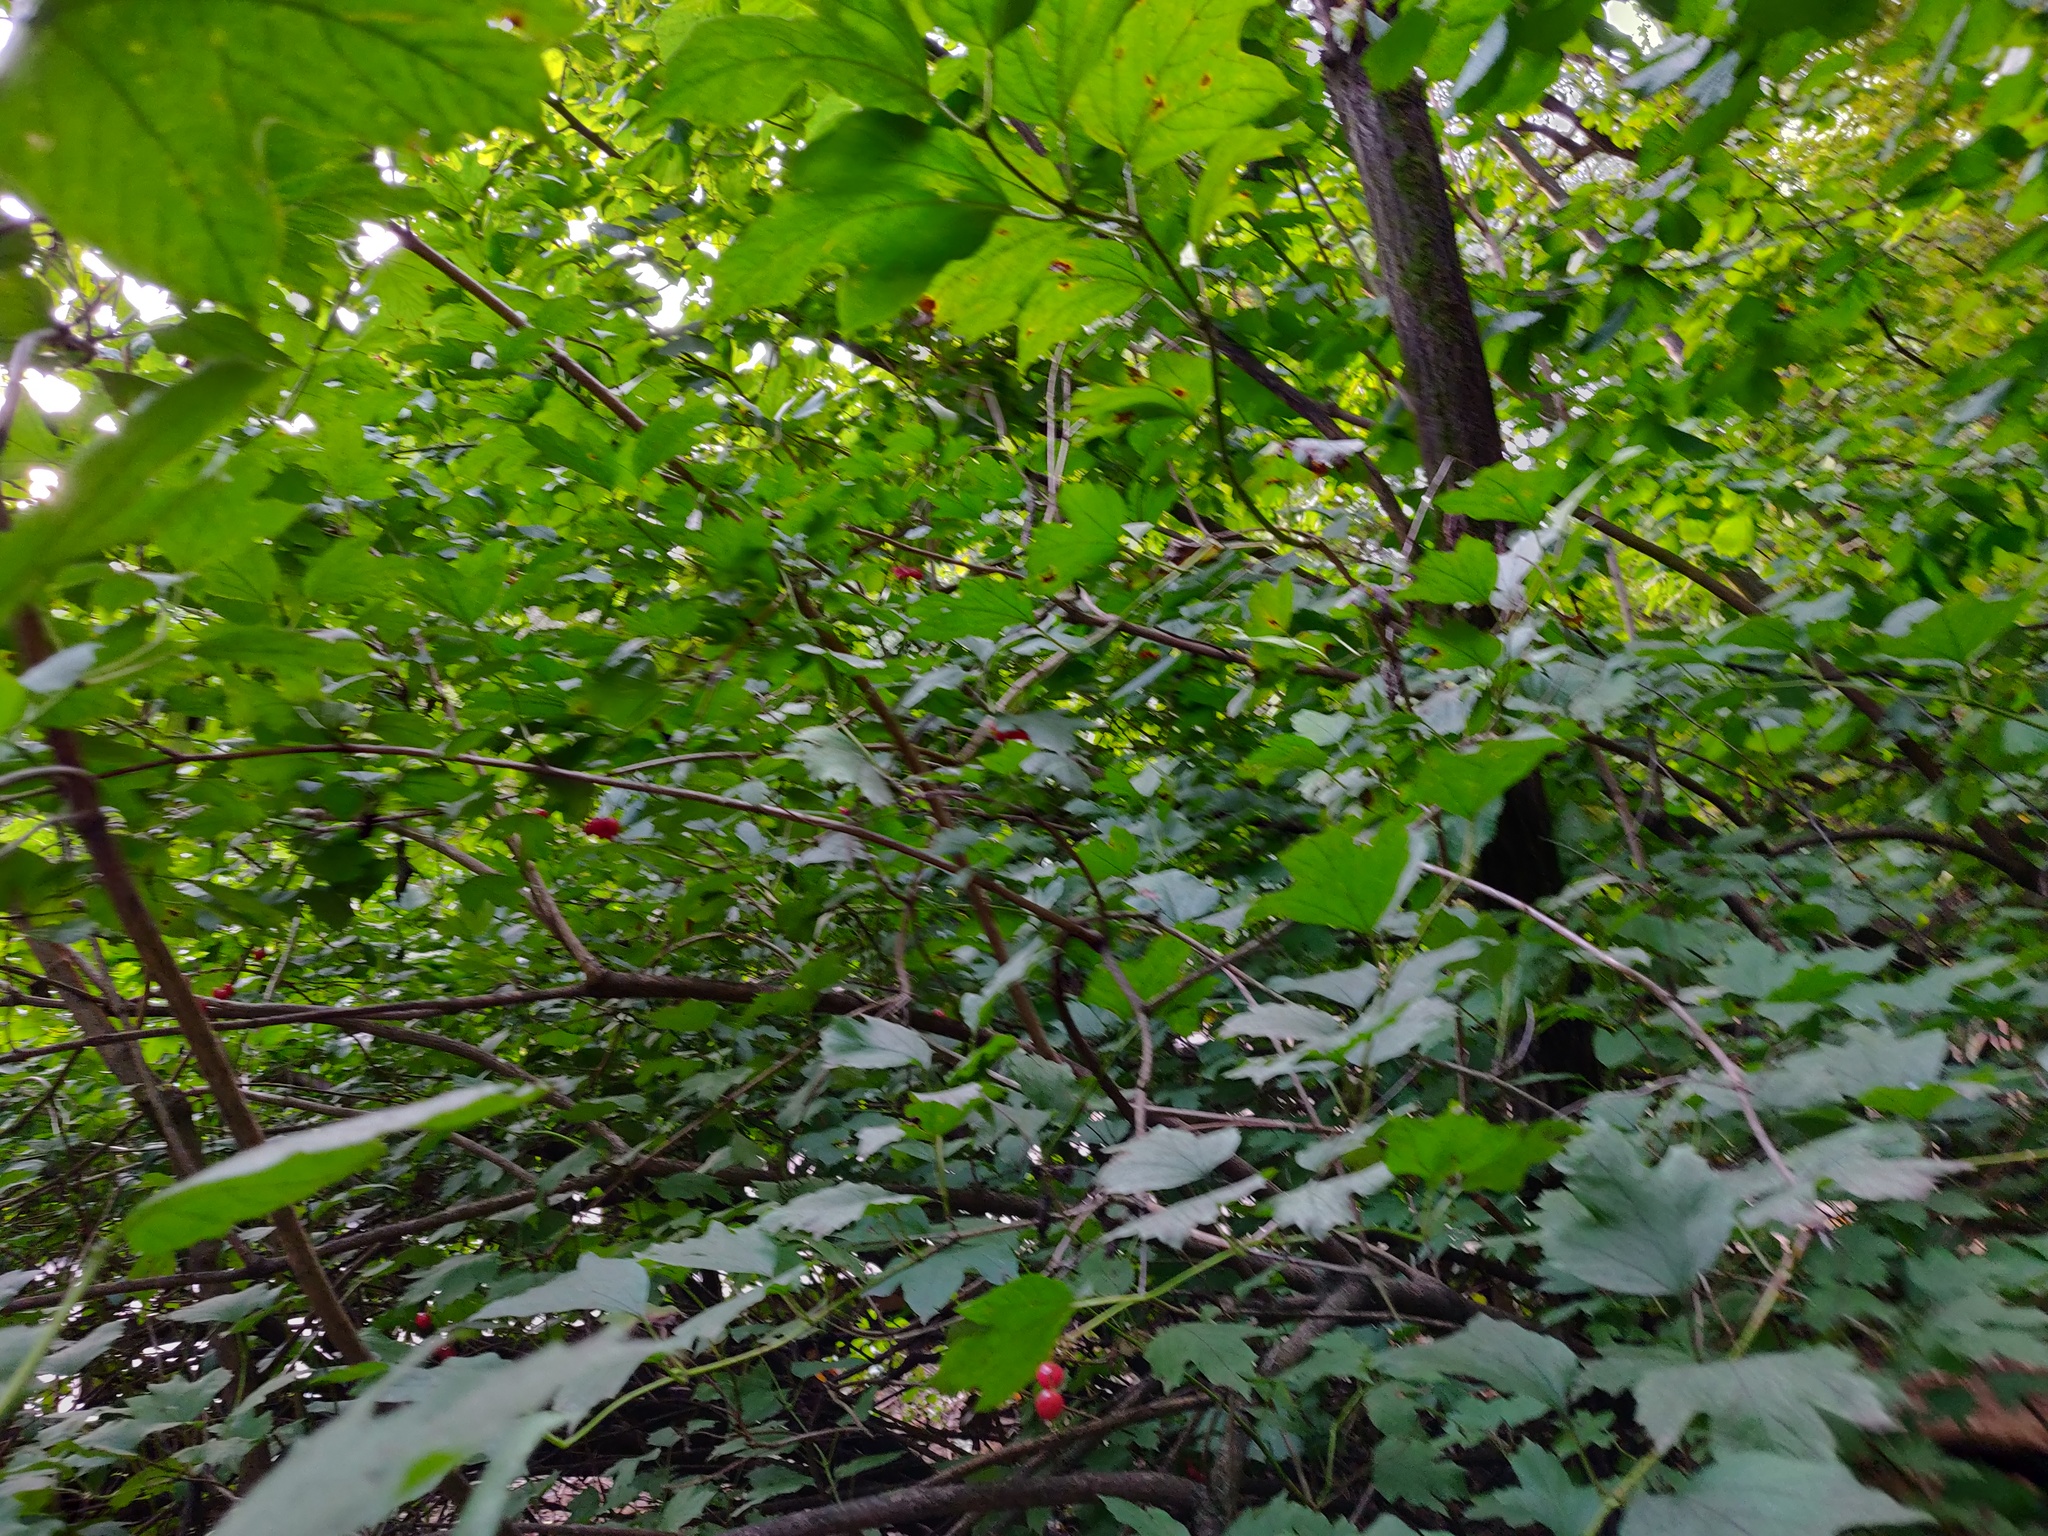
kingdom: Plantae
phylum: Tracheophyta
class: Magnoliopsida
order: Dipsacales
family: Viburnaceae
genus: Viburnum
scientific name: Viburnum opulus
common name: Guelder-rose
